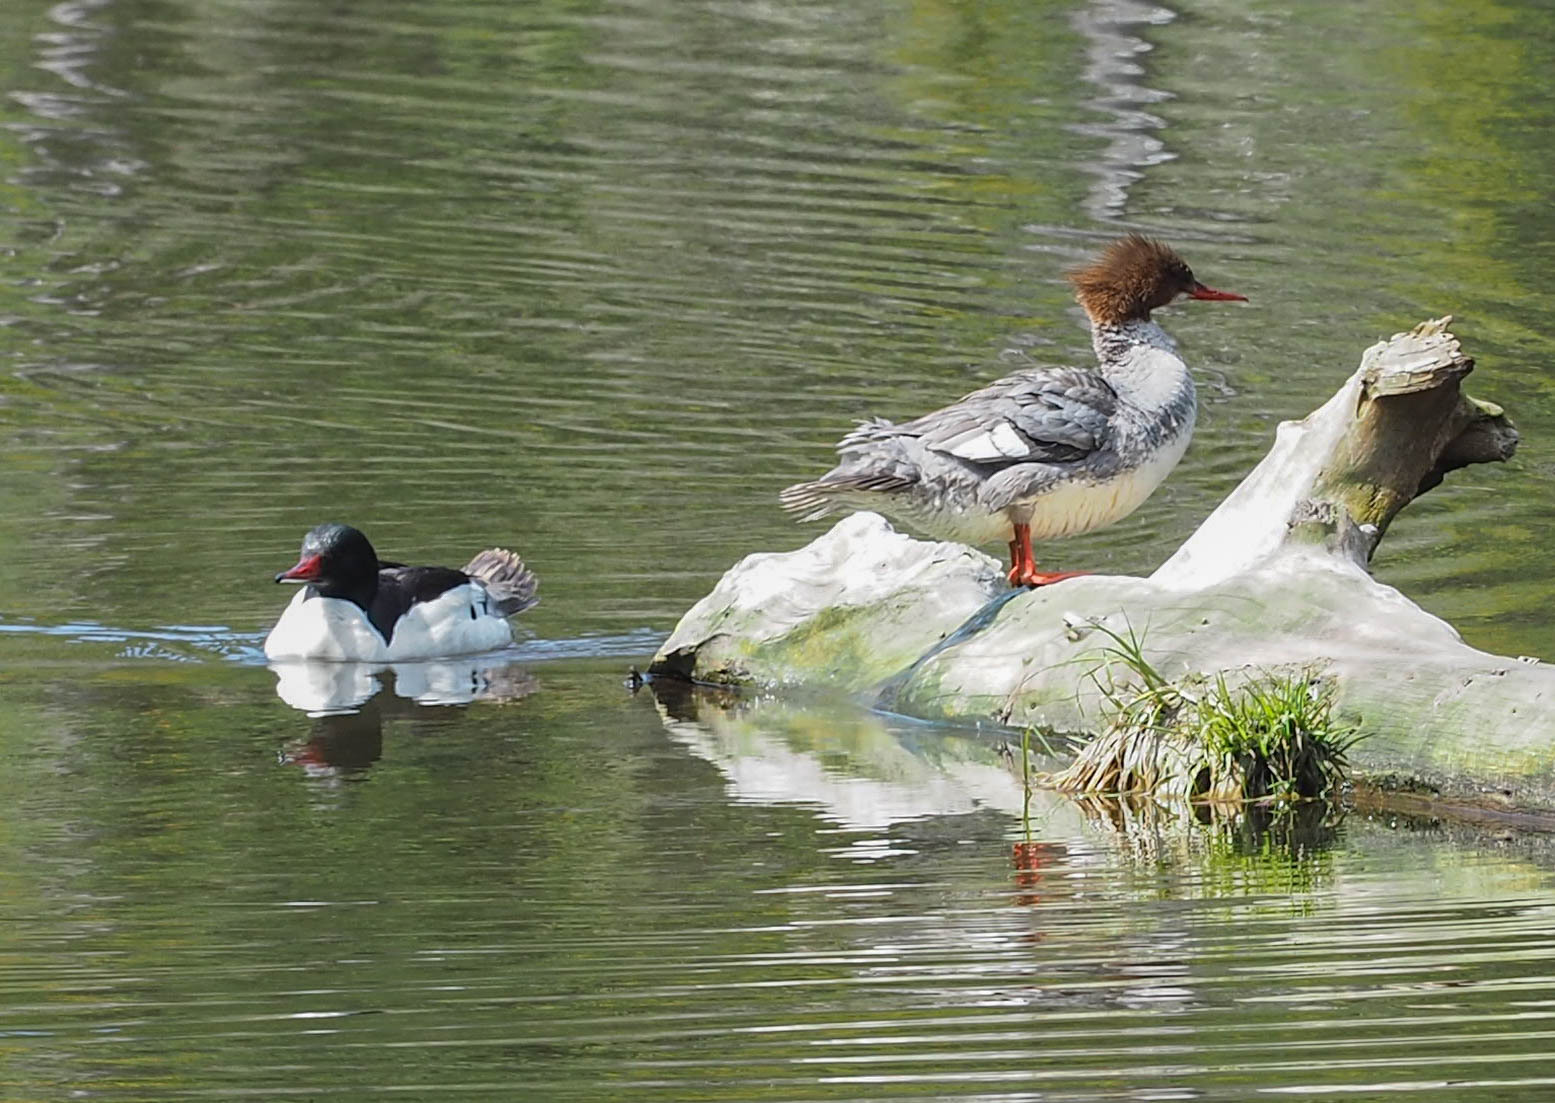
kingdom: Animalia
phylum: Chordata
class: Aves
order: Anseriformes
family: Anatidae
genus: Mergus
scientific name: Mergus merganser
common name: Common merganser
